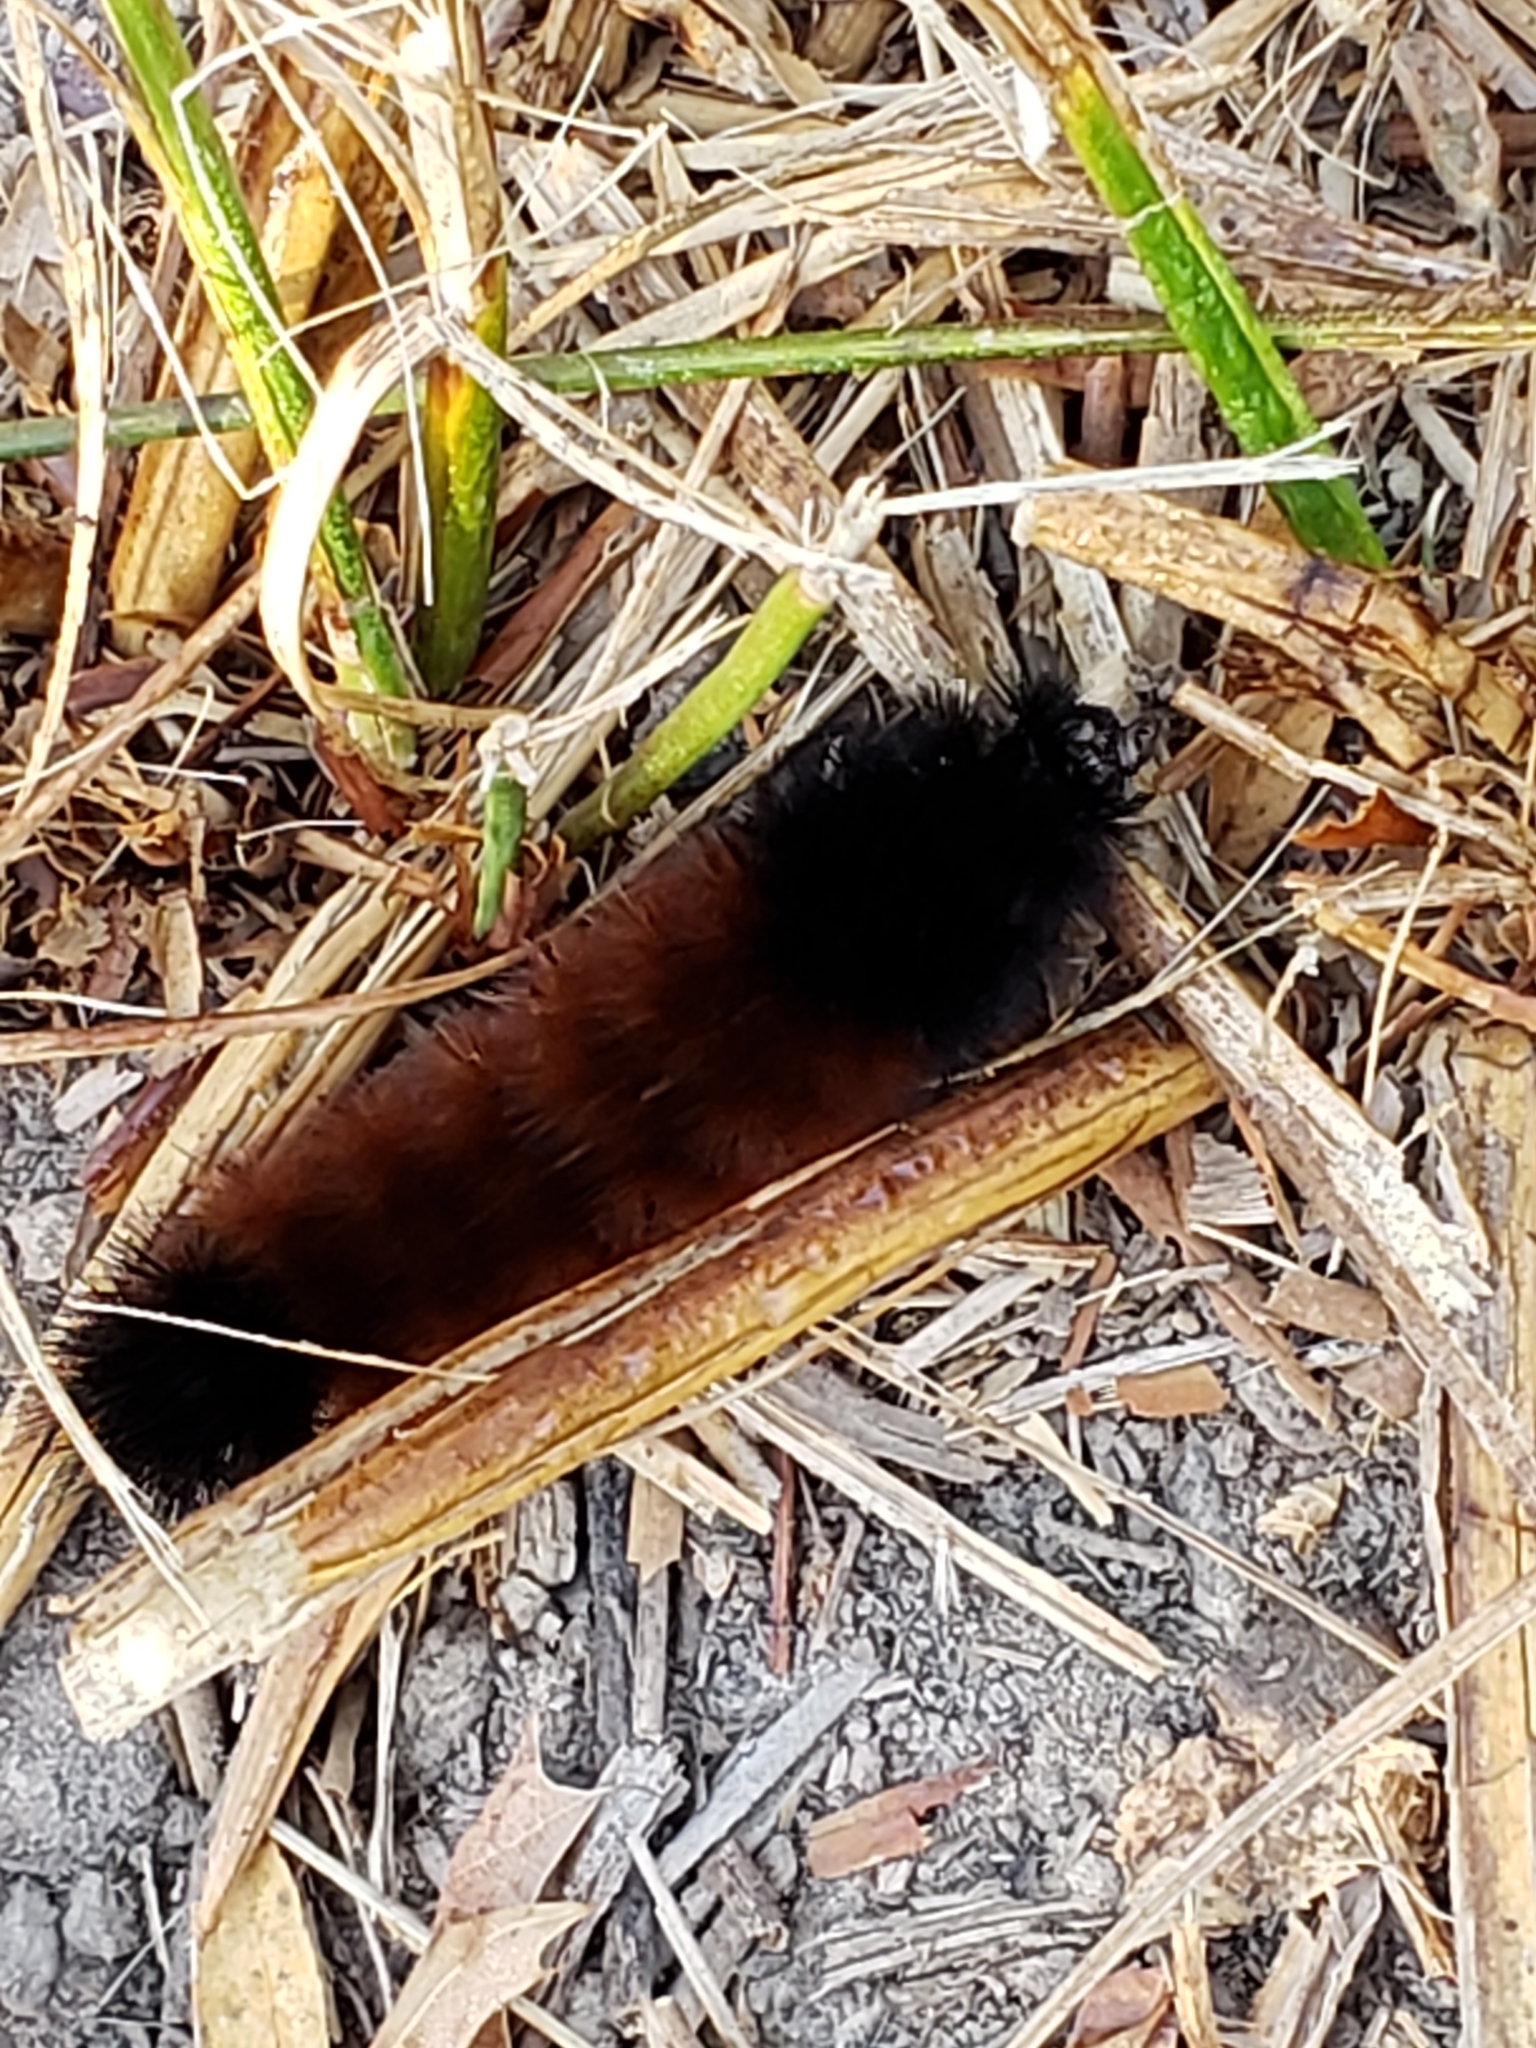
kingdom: Animalia
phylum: Arthropoda
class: Insecta
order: Lepidoptera
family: Erebidae
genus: Pyrrharctia
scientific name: Pyrrharctia isabella
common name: Isabella tiger moth
